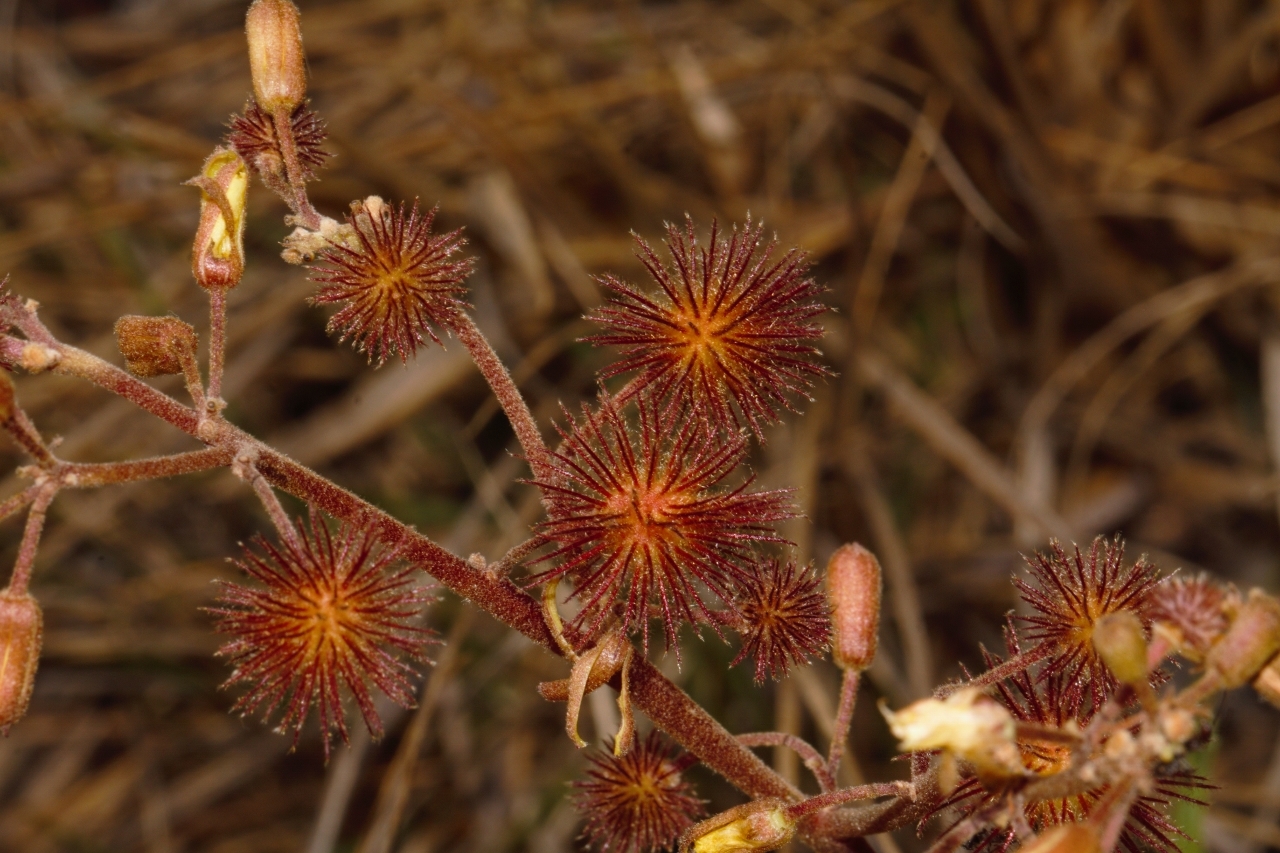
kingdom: Plantae
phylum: Tracheophyta
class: Magnoliopsida
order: Malvales
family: Malvaceae
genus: Triumfetta
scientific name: Triumfetta welwitschii
